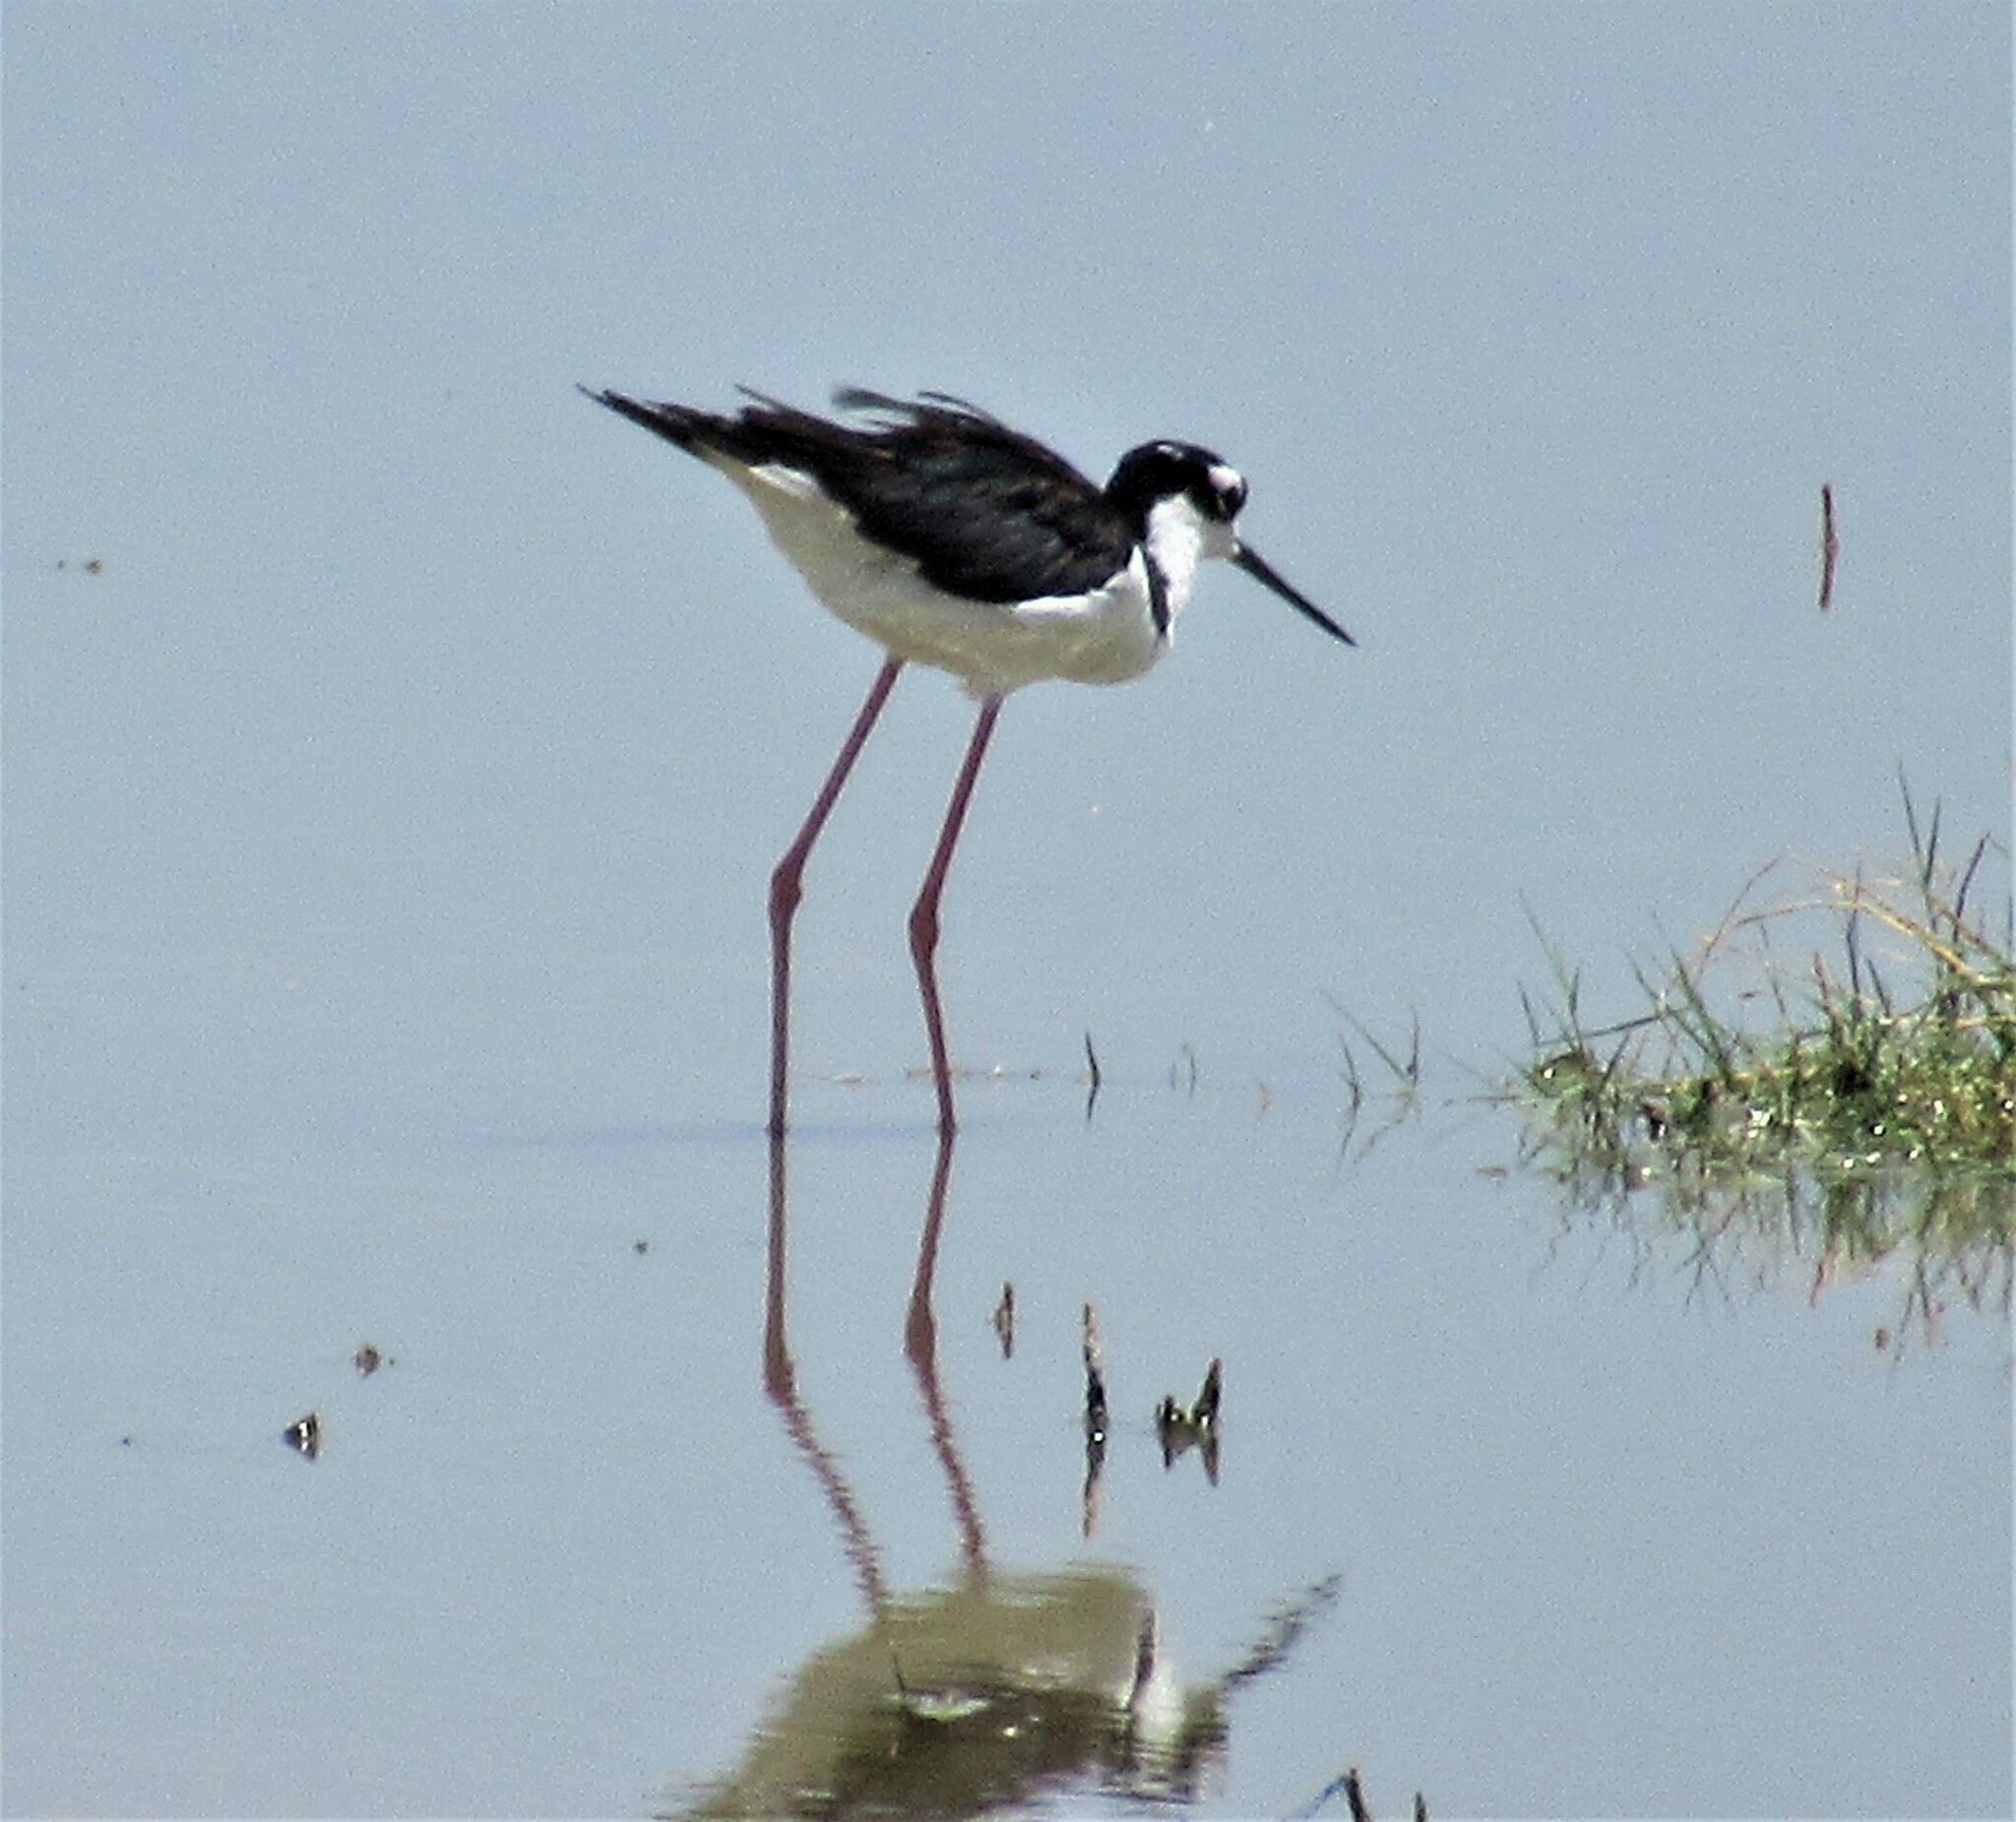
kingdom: Animalia
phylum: Chordata
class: Aves
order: Charadriiformes
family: Recurvirostridae
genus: Himantopus
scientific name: Himantopus mexicanus
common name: Black-necked stilt
